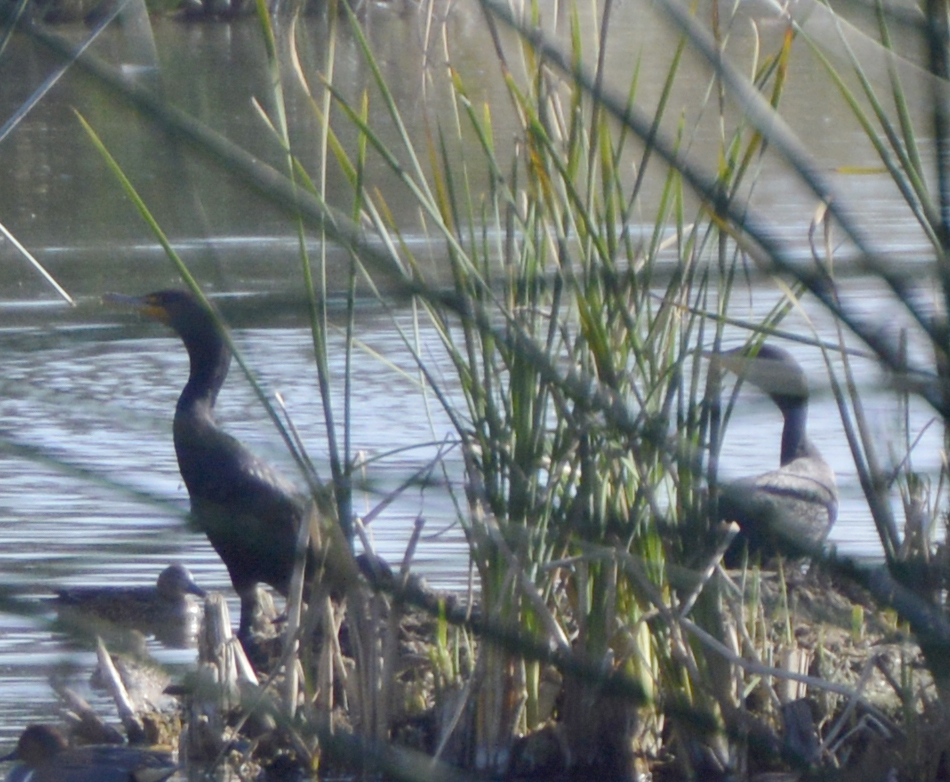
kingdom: Animalia
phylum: Chordata
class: Aves
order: Suliformes
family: Phalacrocoracidae
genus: Phalacrocorax
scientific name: Phalacrocorax auritus
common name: Double-crested cormorant
